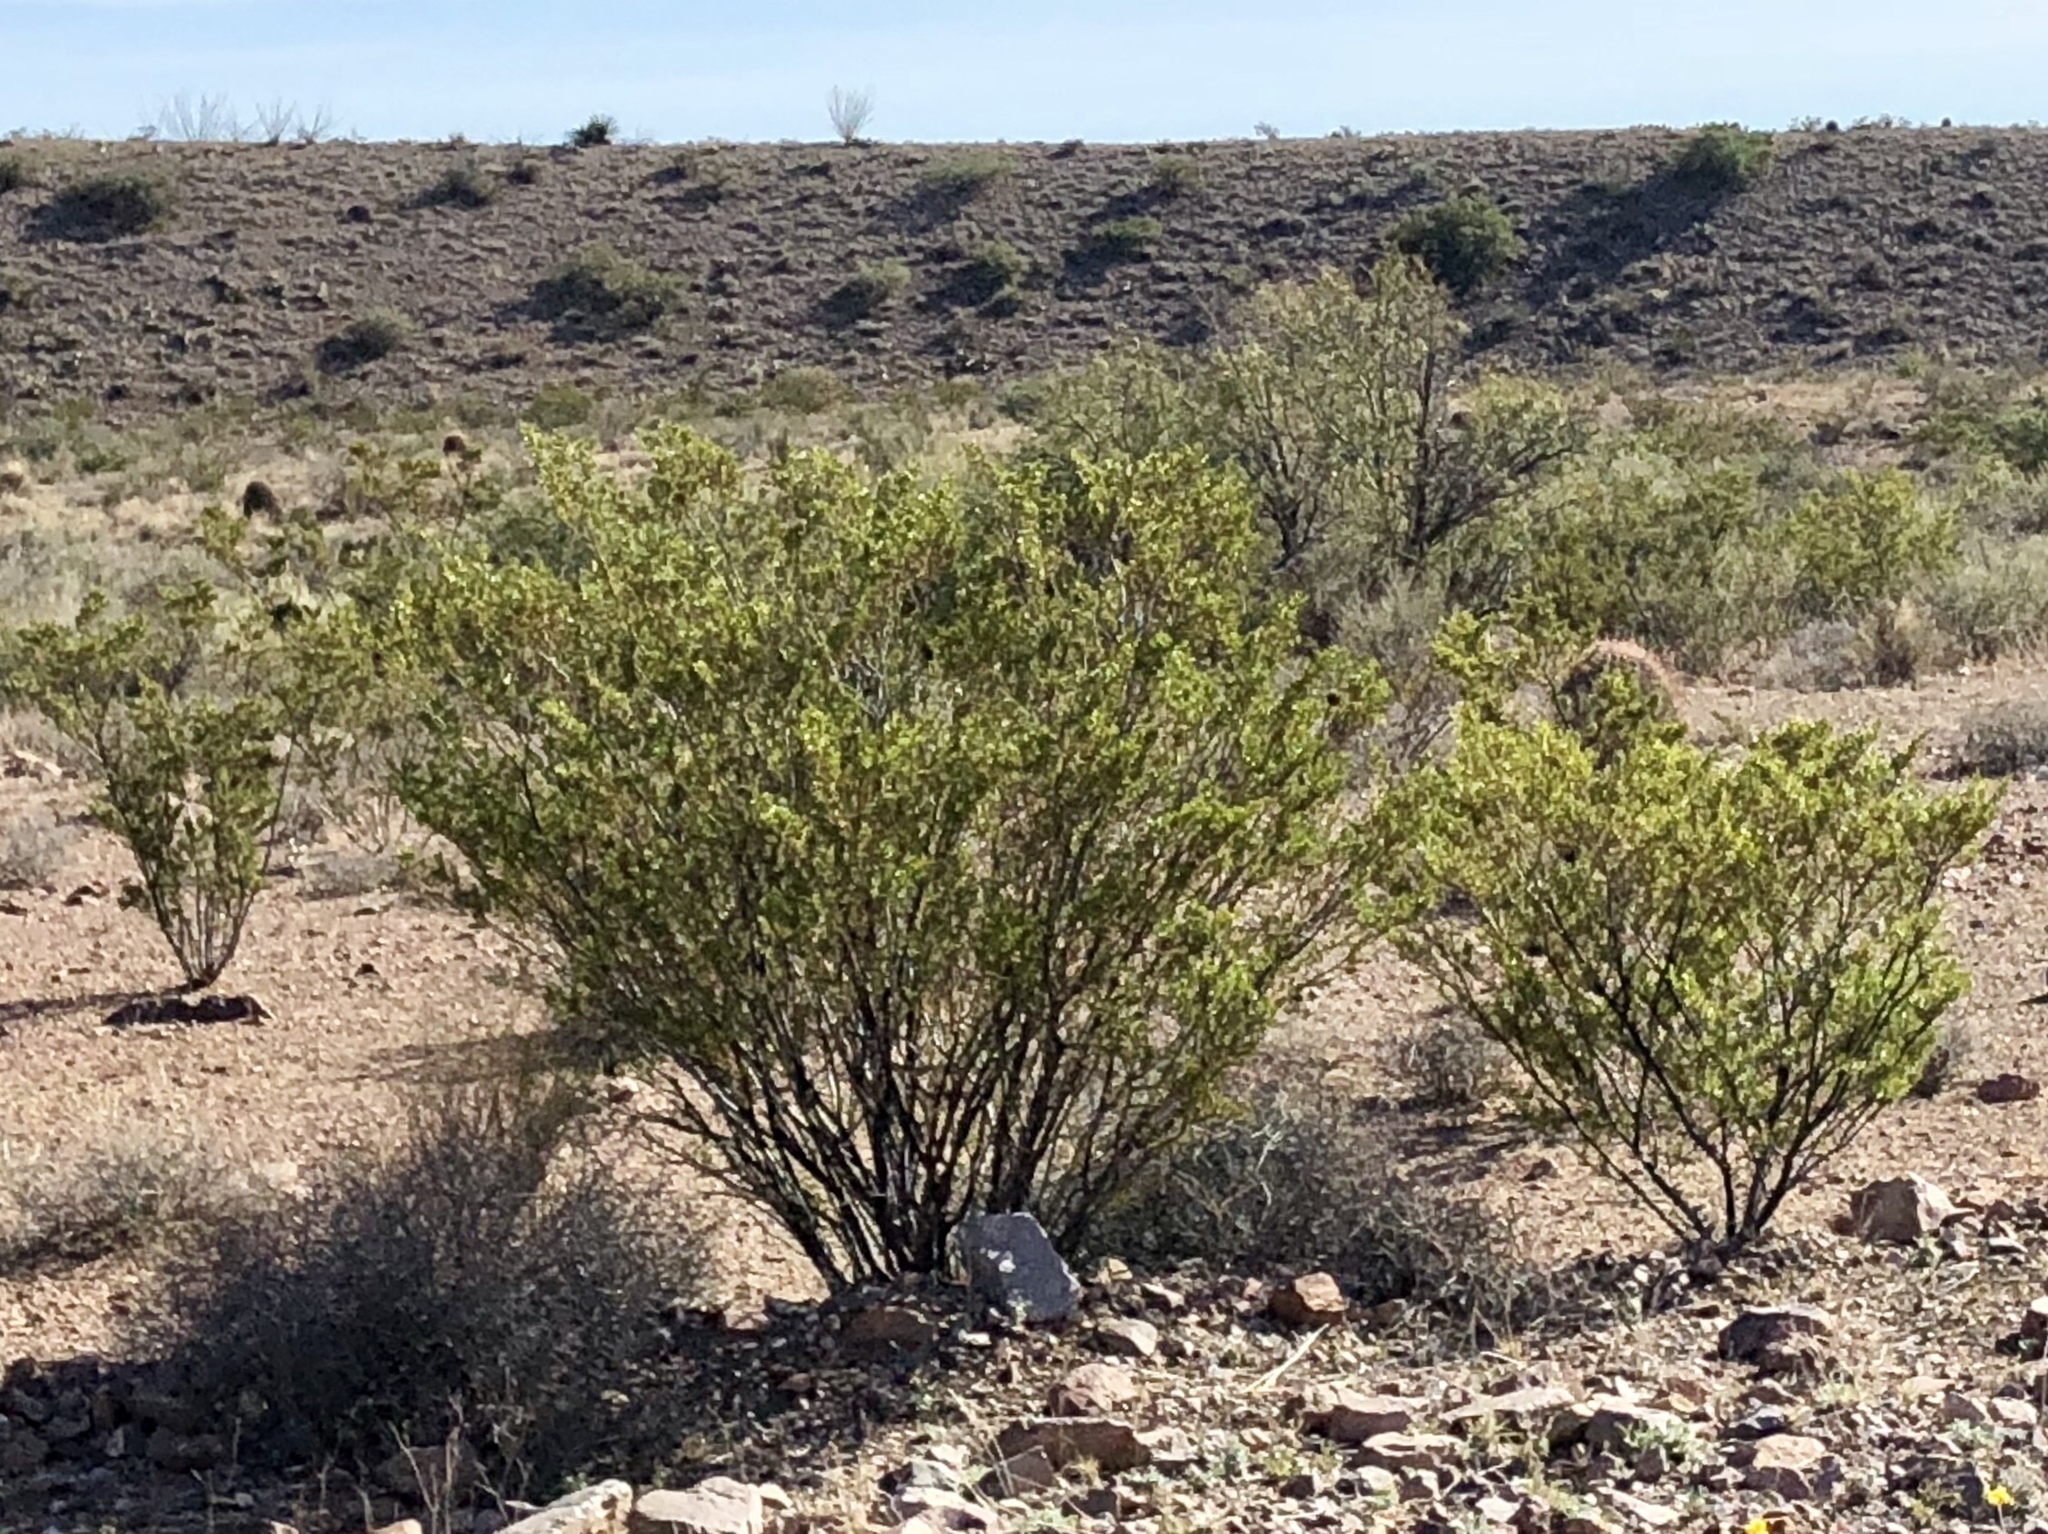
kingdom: Plantae
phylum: Tracheophyta
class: Magnoliopsida
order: Zygophyllales
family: Zygophyllaceae
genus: Larrea
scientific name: Larrea tridentata
